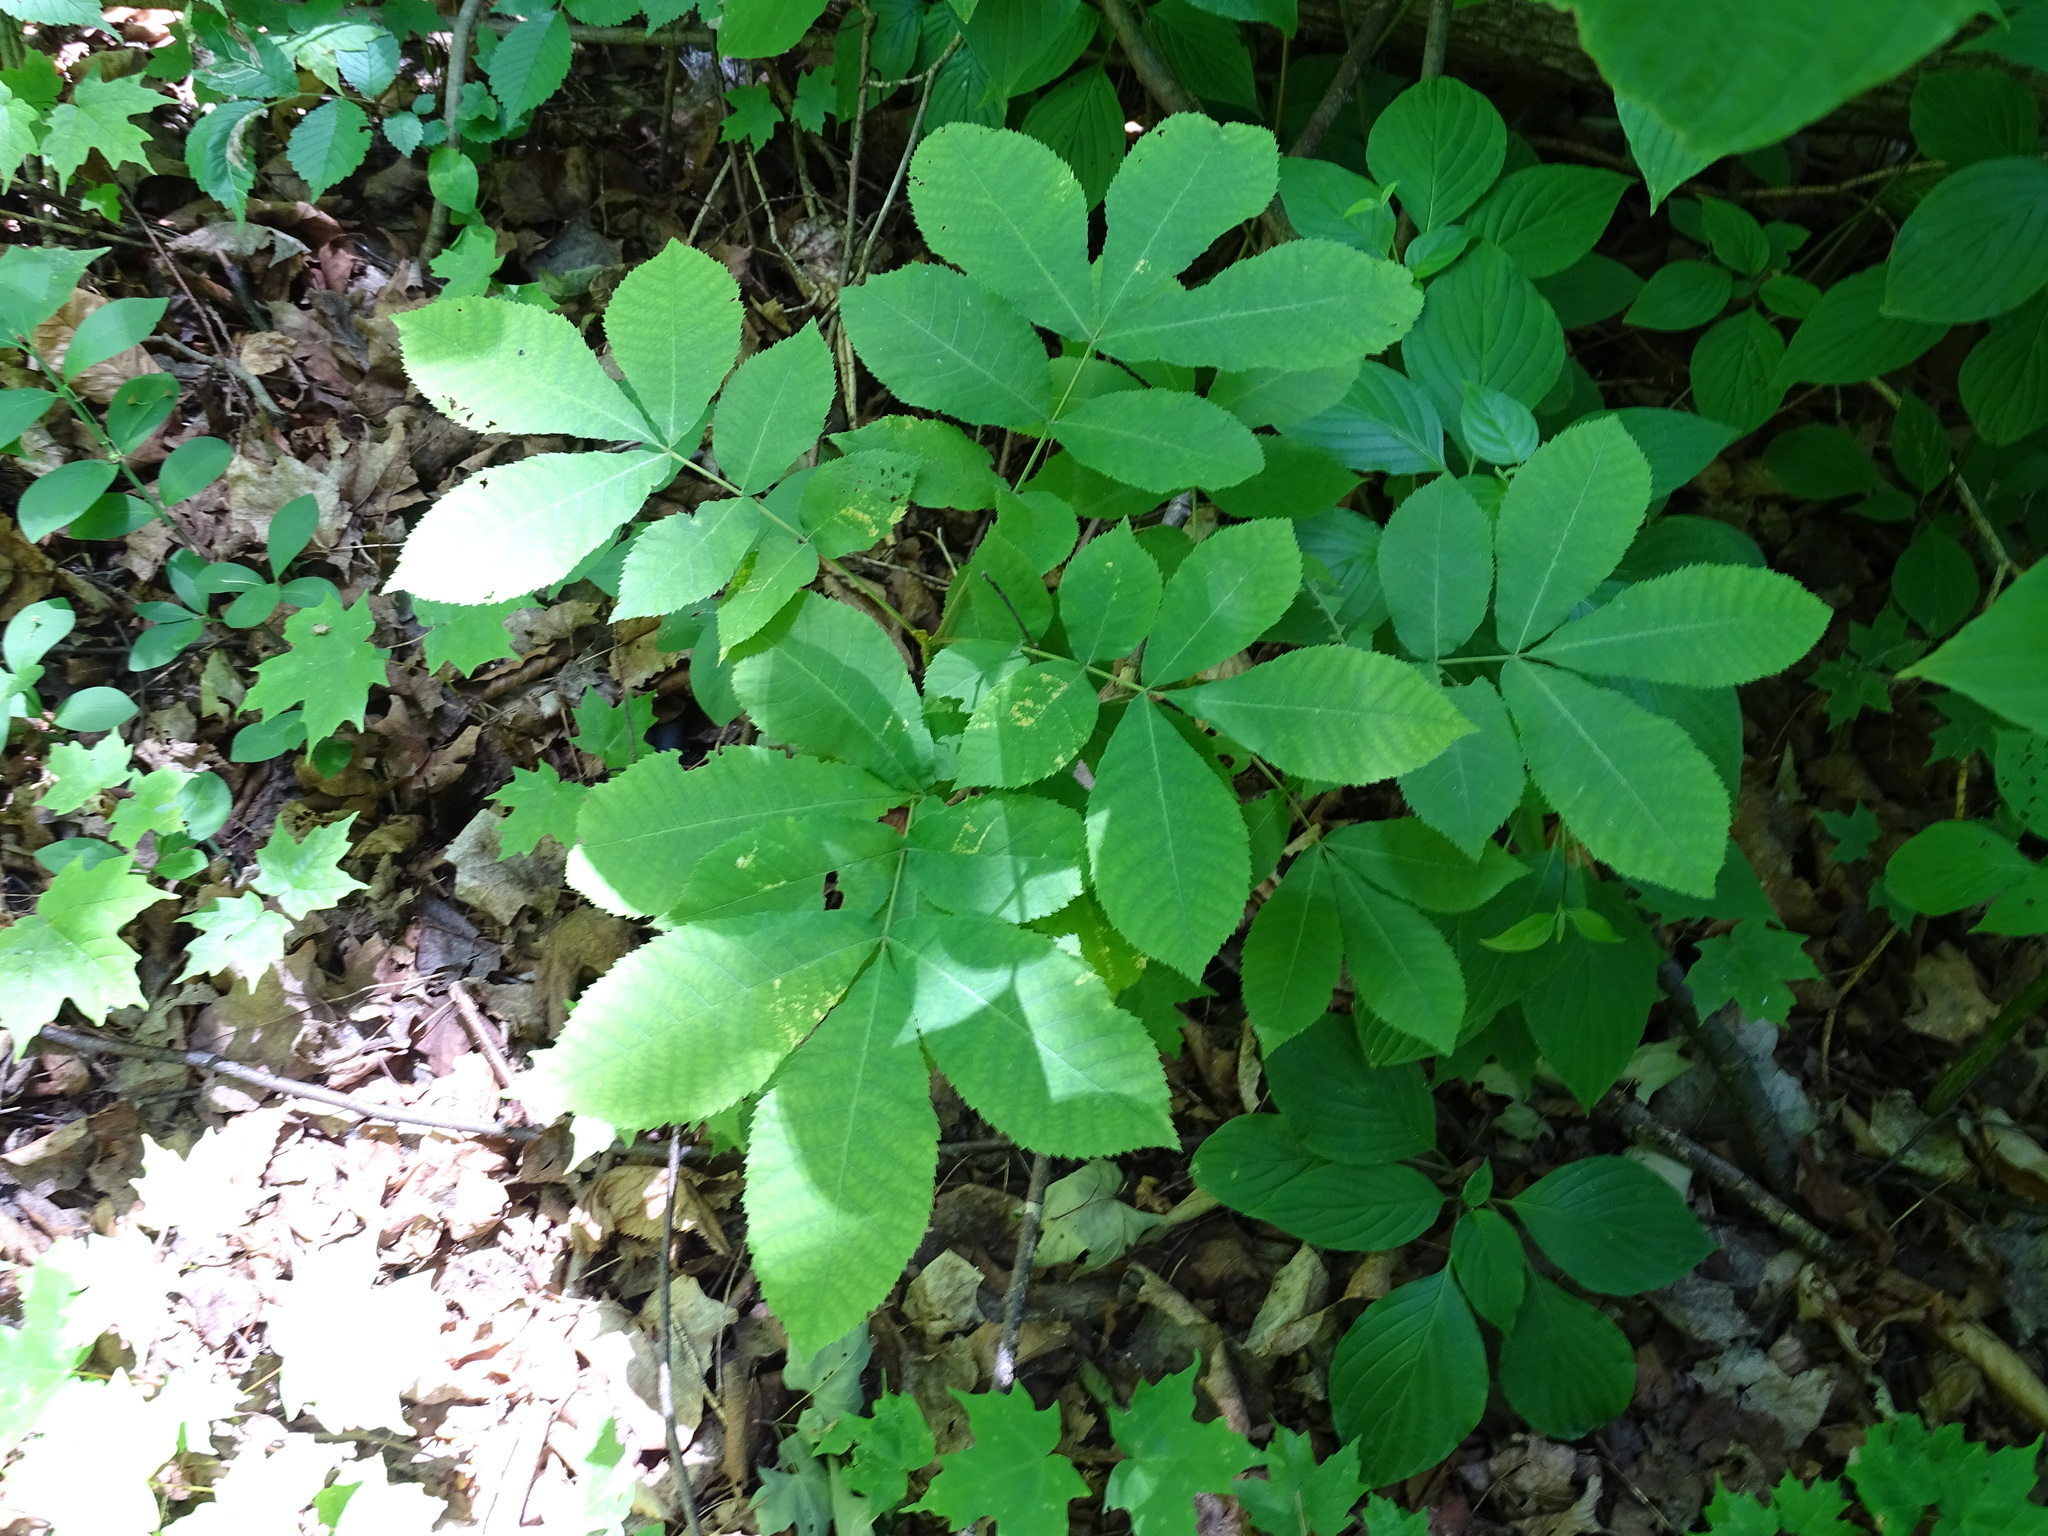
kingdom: Plantae
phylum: Tracheophyta
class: Magnoliopsida
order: Fagales
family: Juglandaceae
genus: Carya
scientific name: Carya cordiformis
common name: Bitternut hickory
